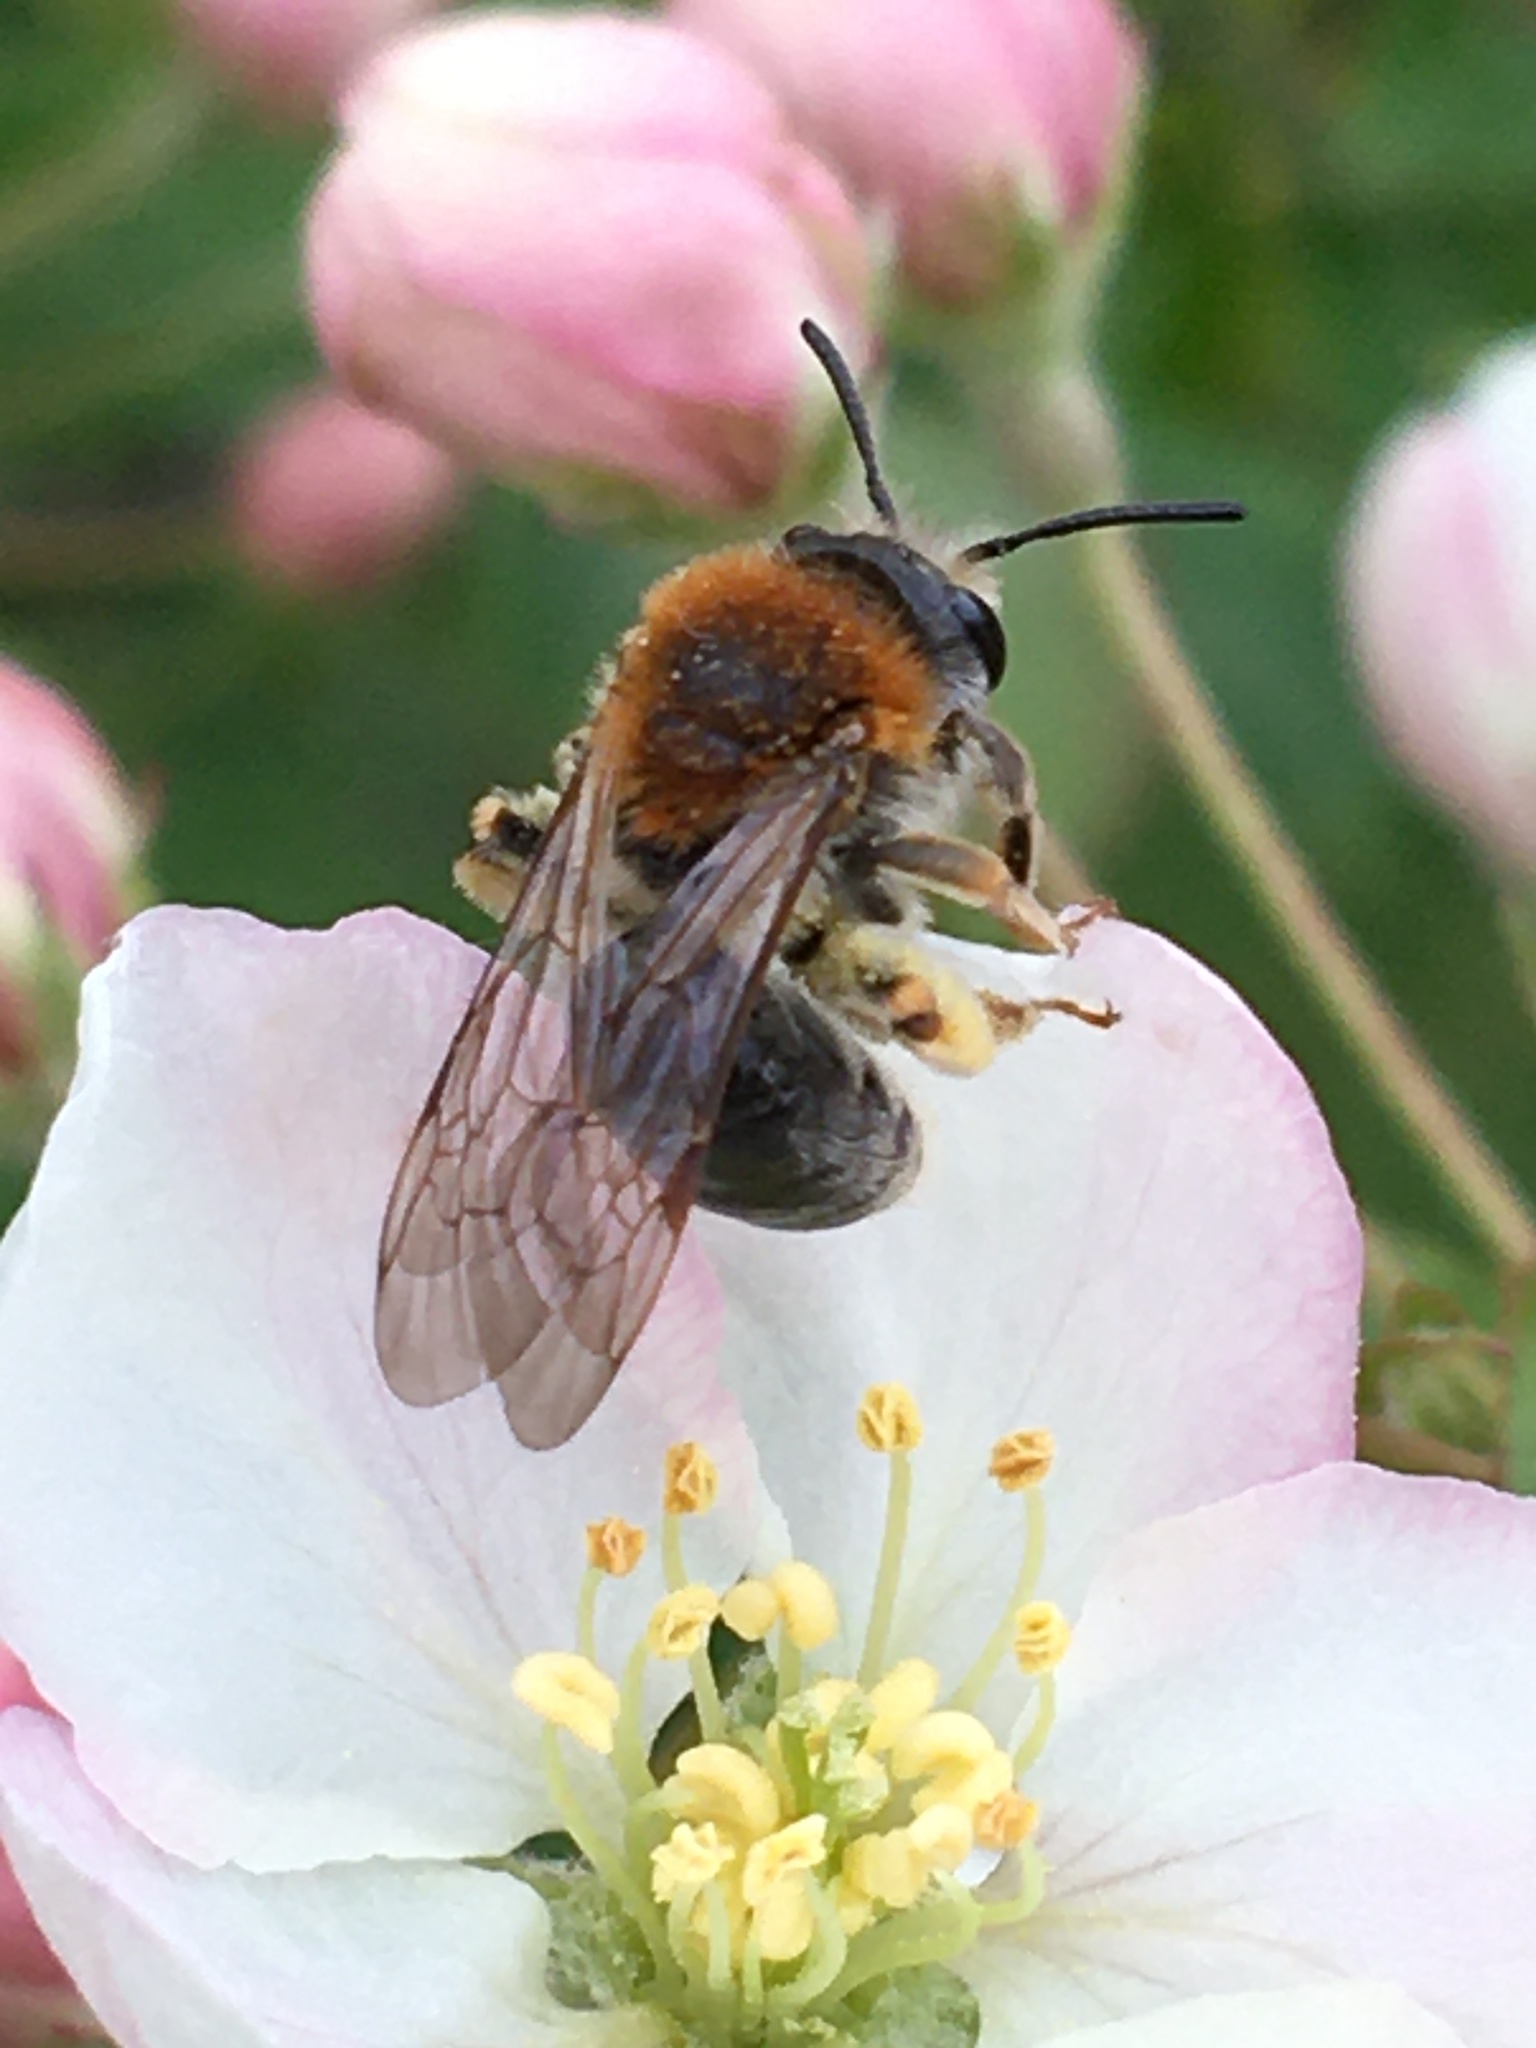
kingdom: Animalia
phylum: Arthropoda
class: Insecta
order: Hymenoptera
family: Andrenidae
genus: Andrena
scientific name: Andrena haemorrhoa
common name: Early mining bee
